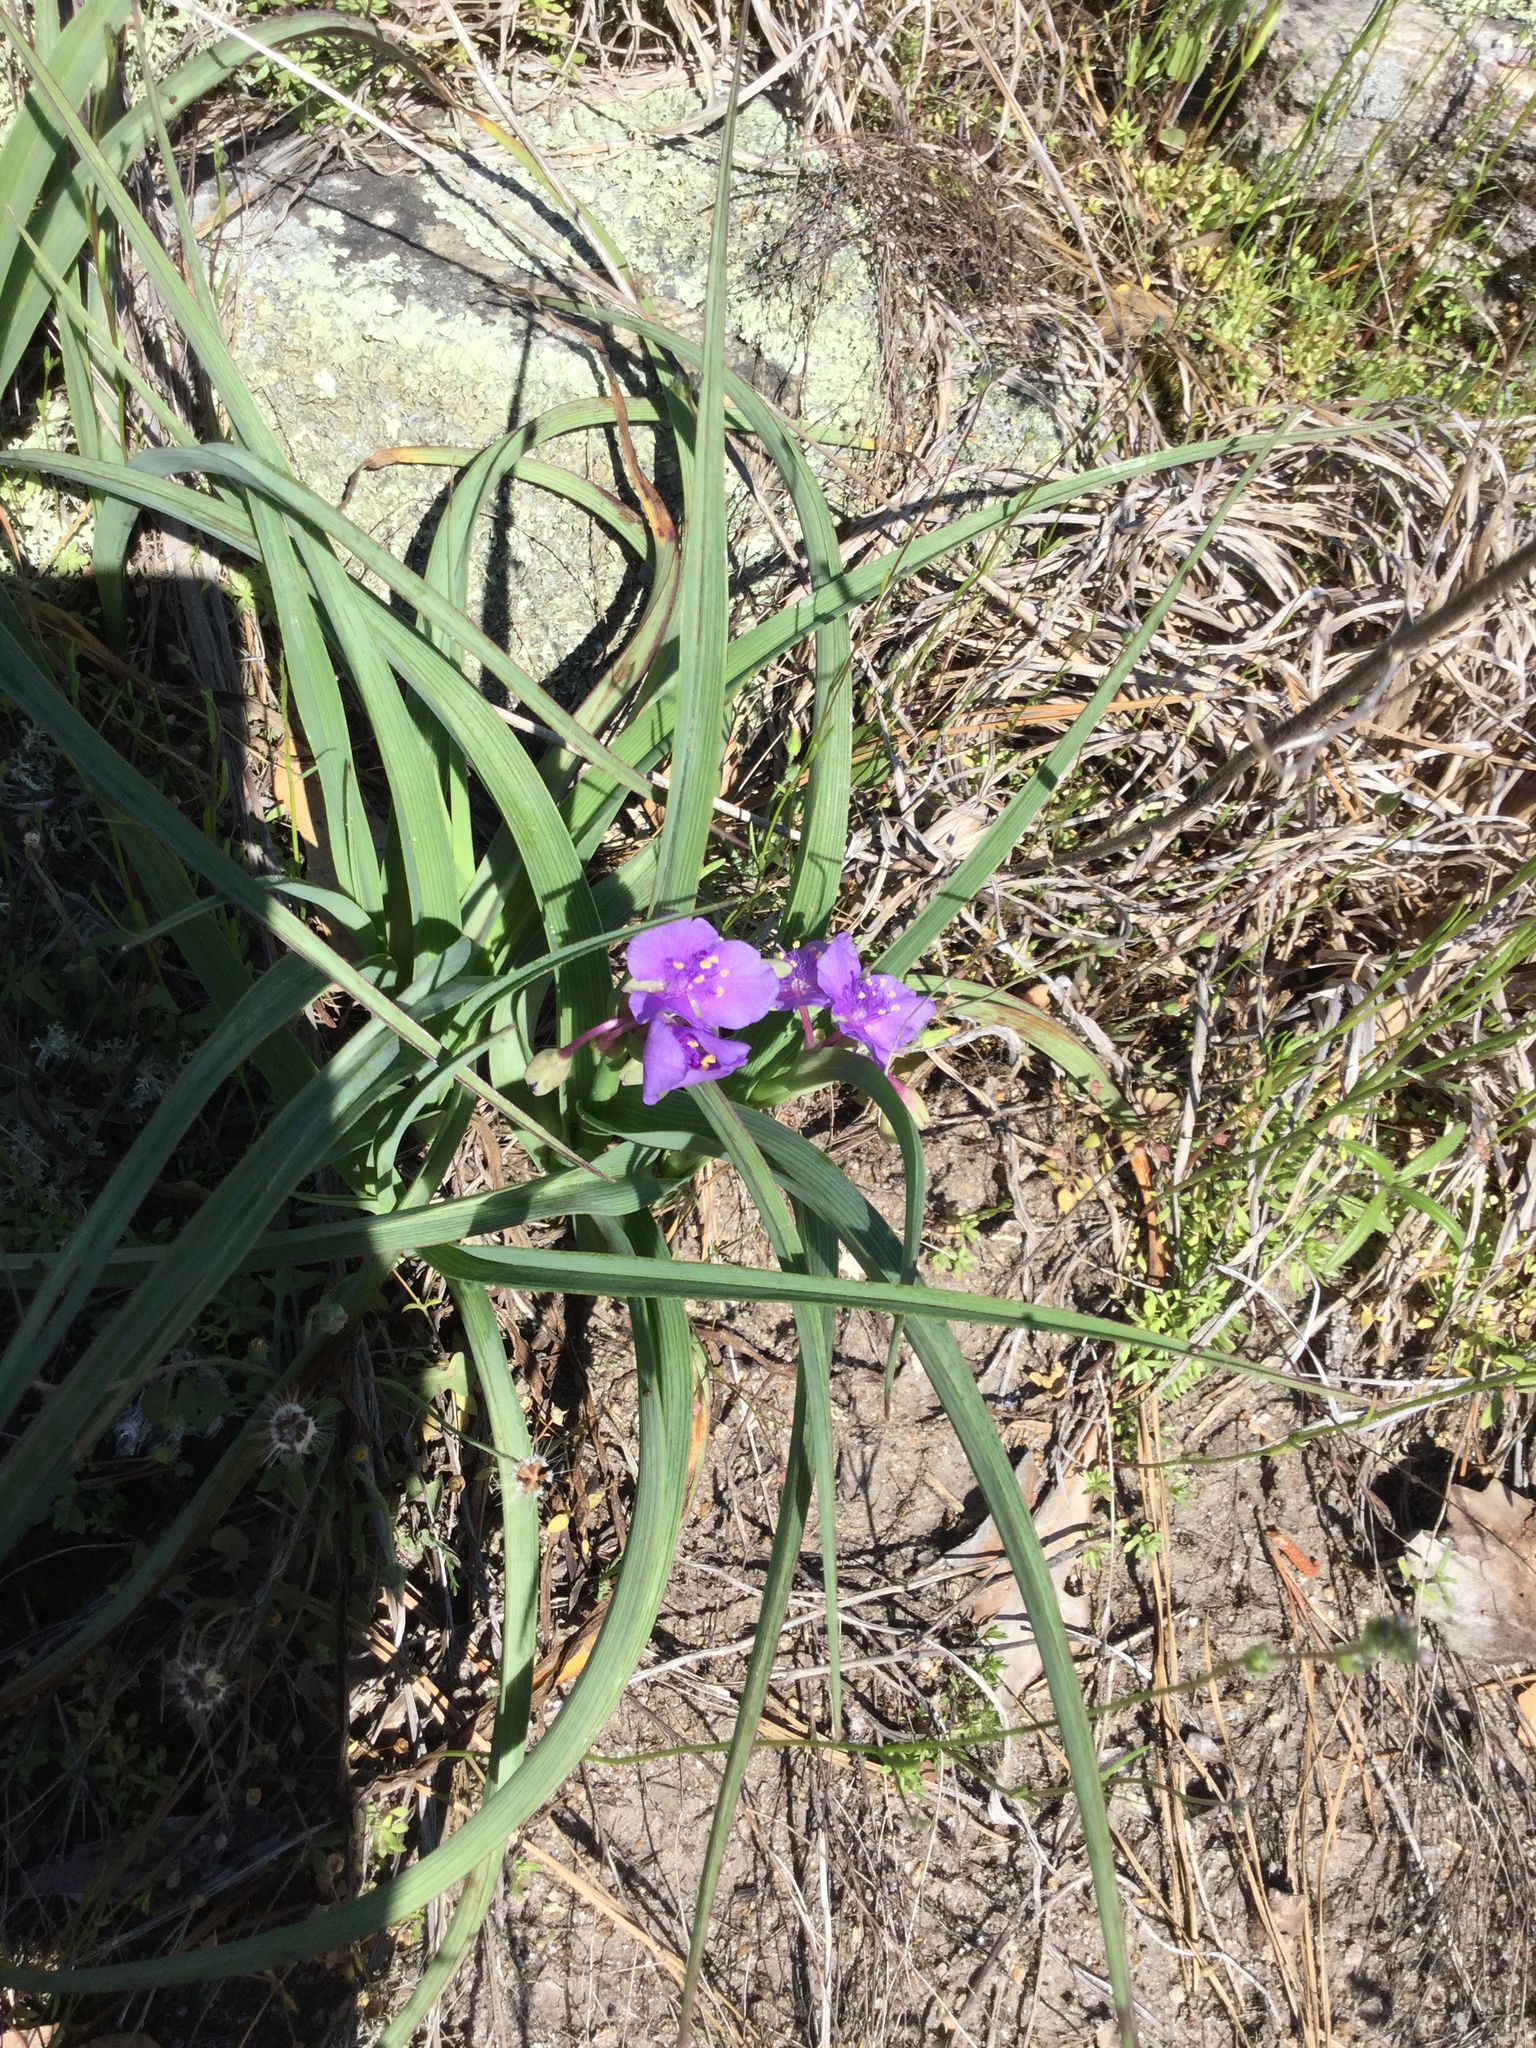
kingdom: Plantae
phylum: Tracheophyta
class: Liliopsida
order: Commelinales
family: Commelinaceae
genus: Tradescantia
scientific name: Tradescantia virginiana
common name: Spiderwort
